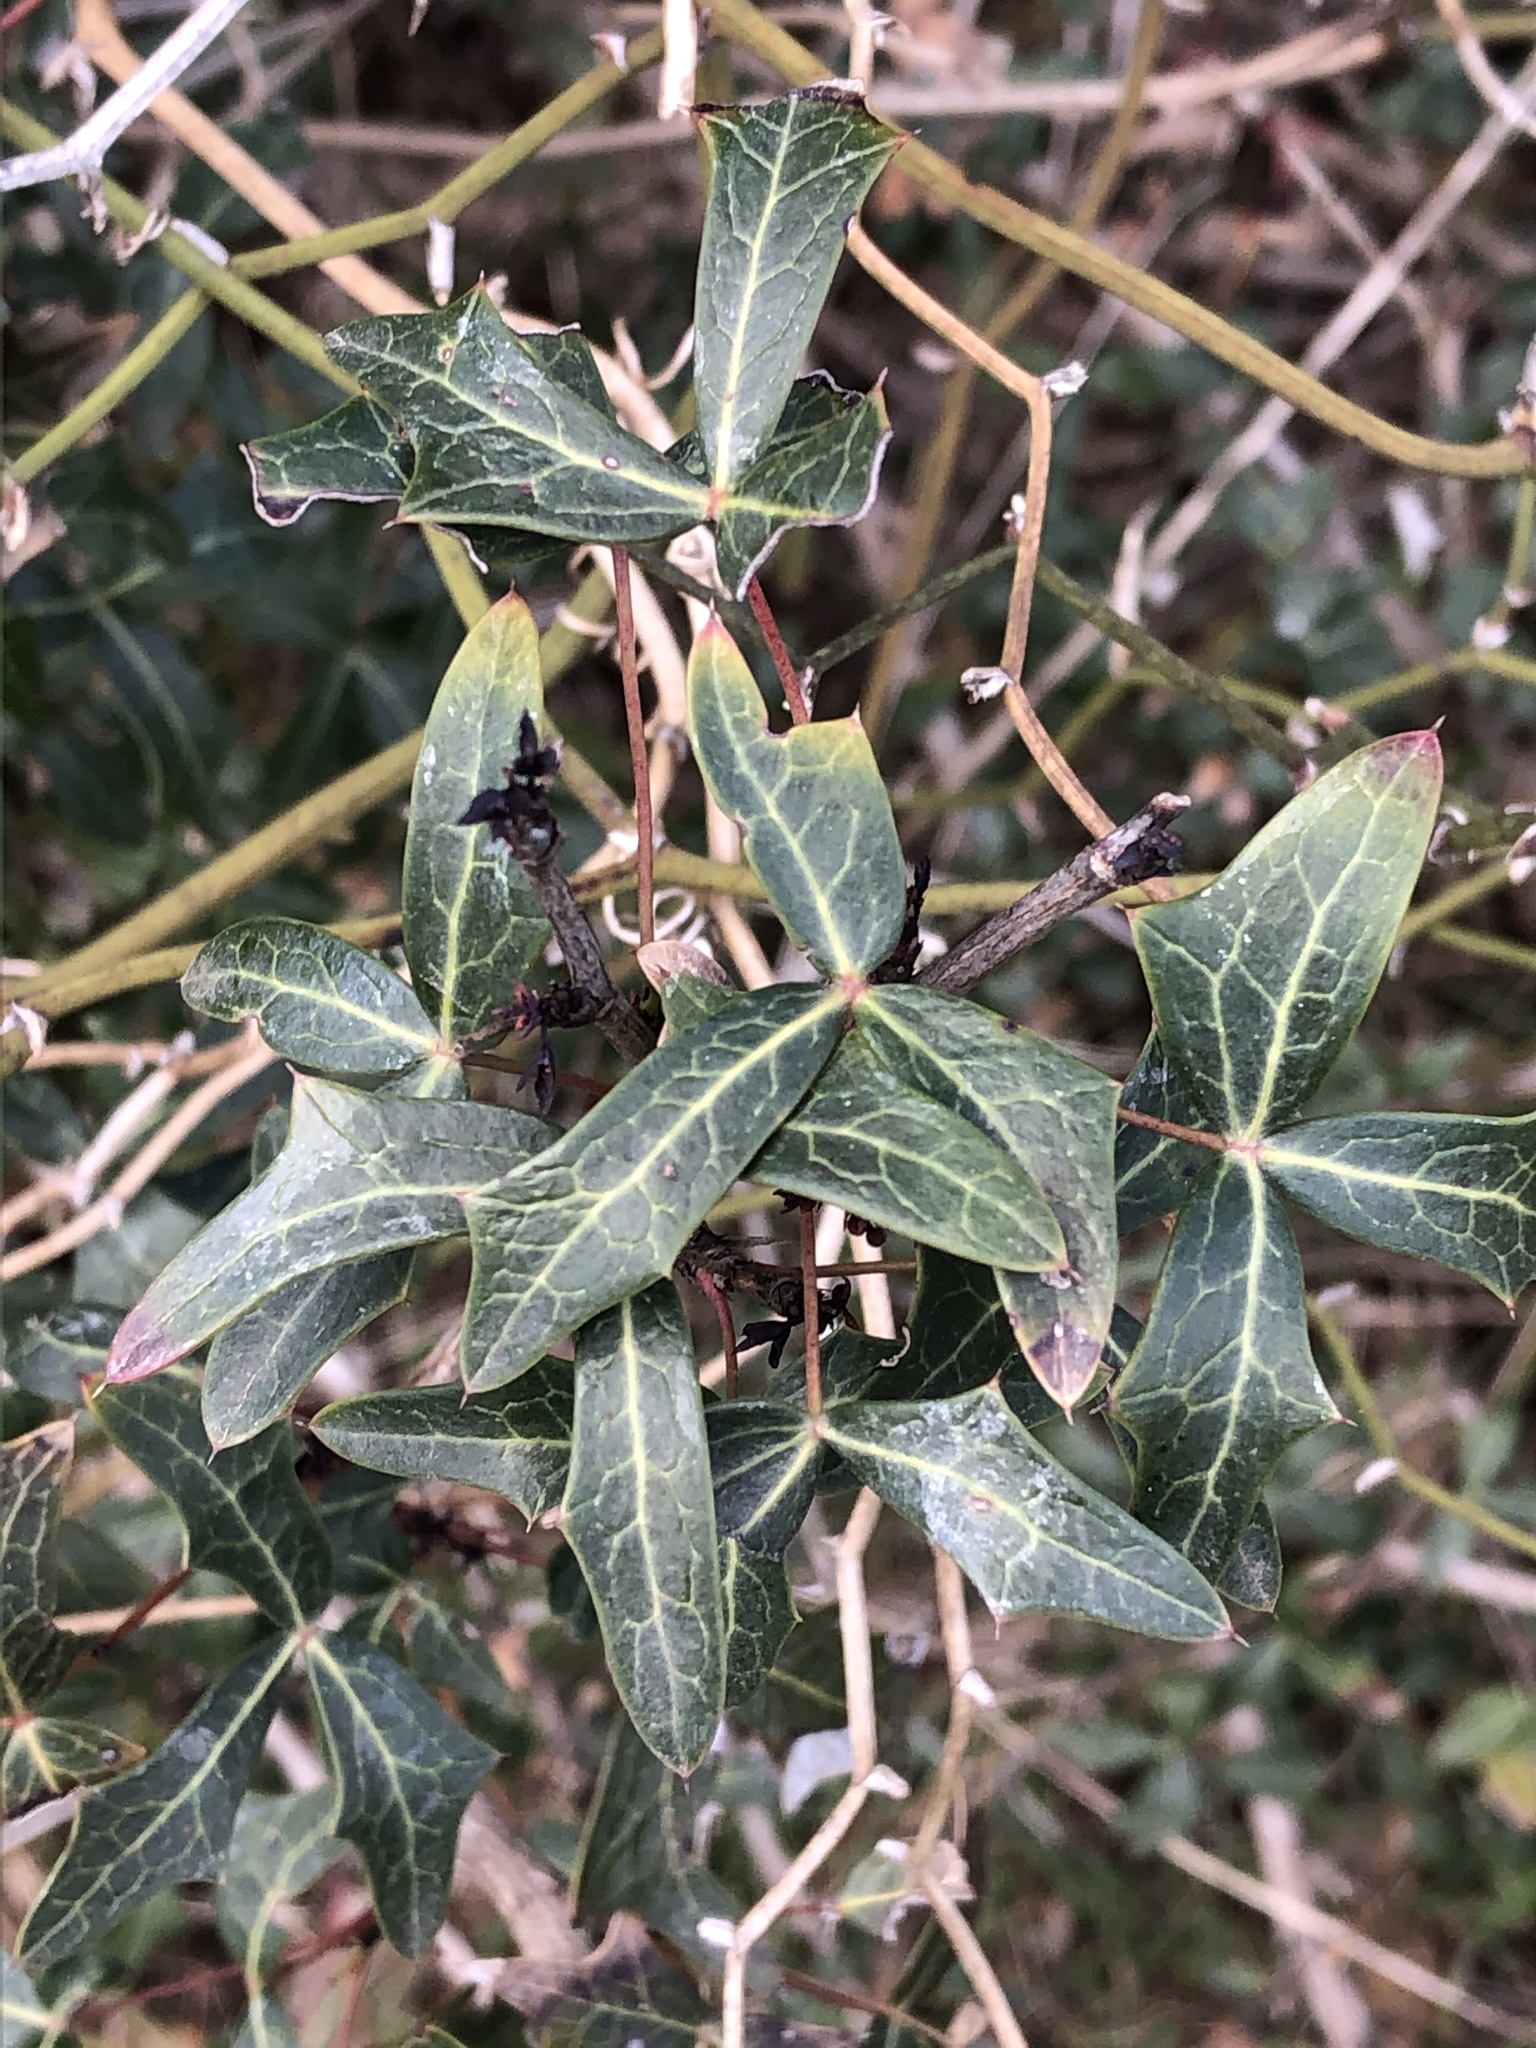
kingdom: Plantae
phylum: Tracheophyta
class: Magnoliopsida
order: Ranunculales
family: Berberidaceae
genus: Alloberberis
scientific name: Alloberberis trifoliolata
